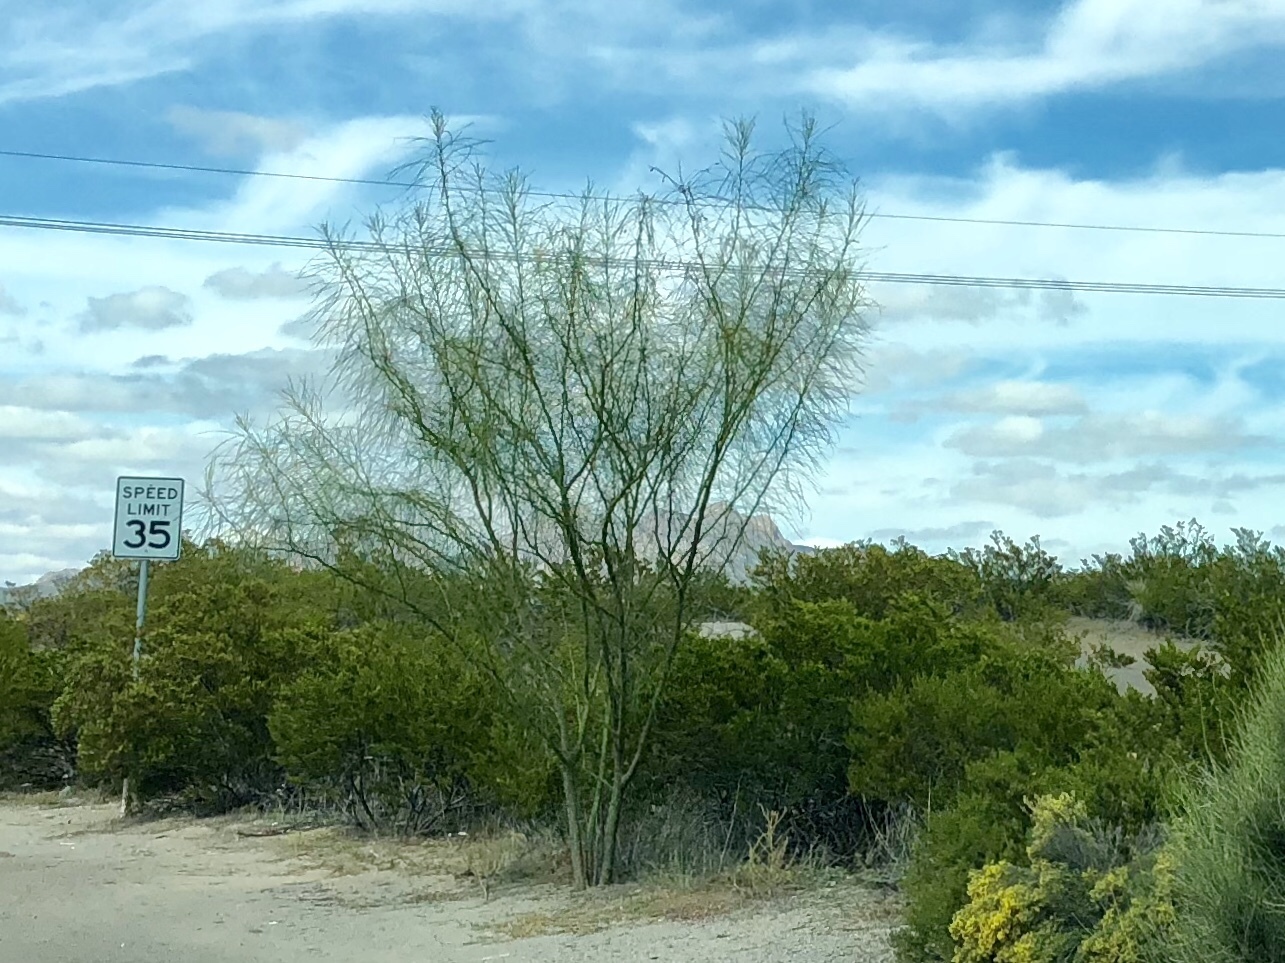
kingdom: Plantae
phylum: Tracheophyta
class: Magnoliopsida
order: Fabales
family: Fabaceae
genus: Parkinsonia
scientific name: Parkinsonia aculeata
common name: Jerusalem thorn
